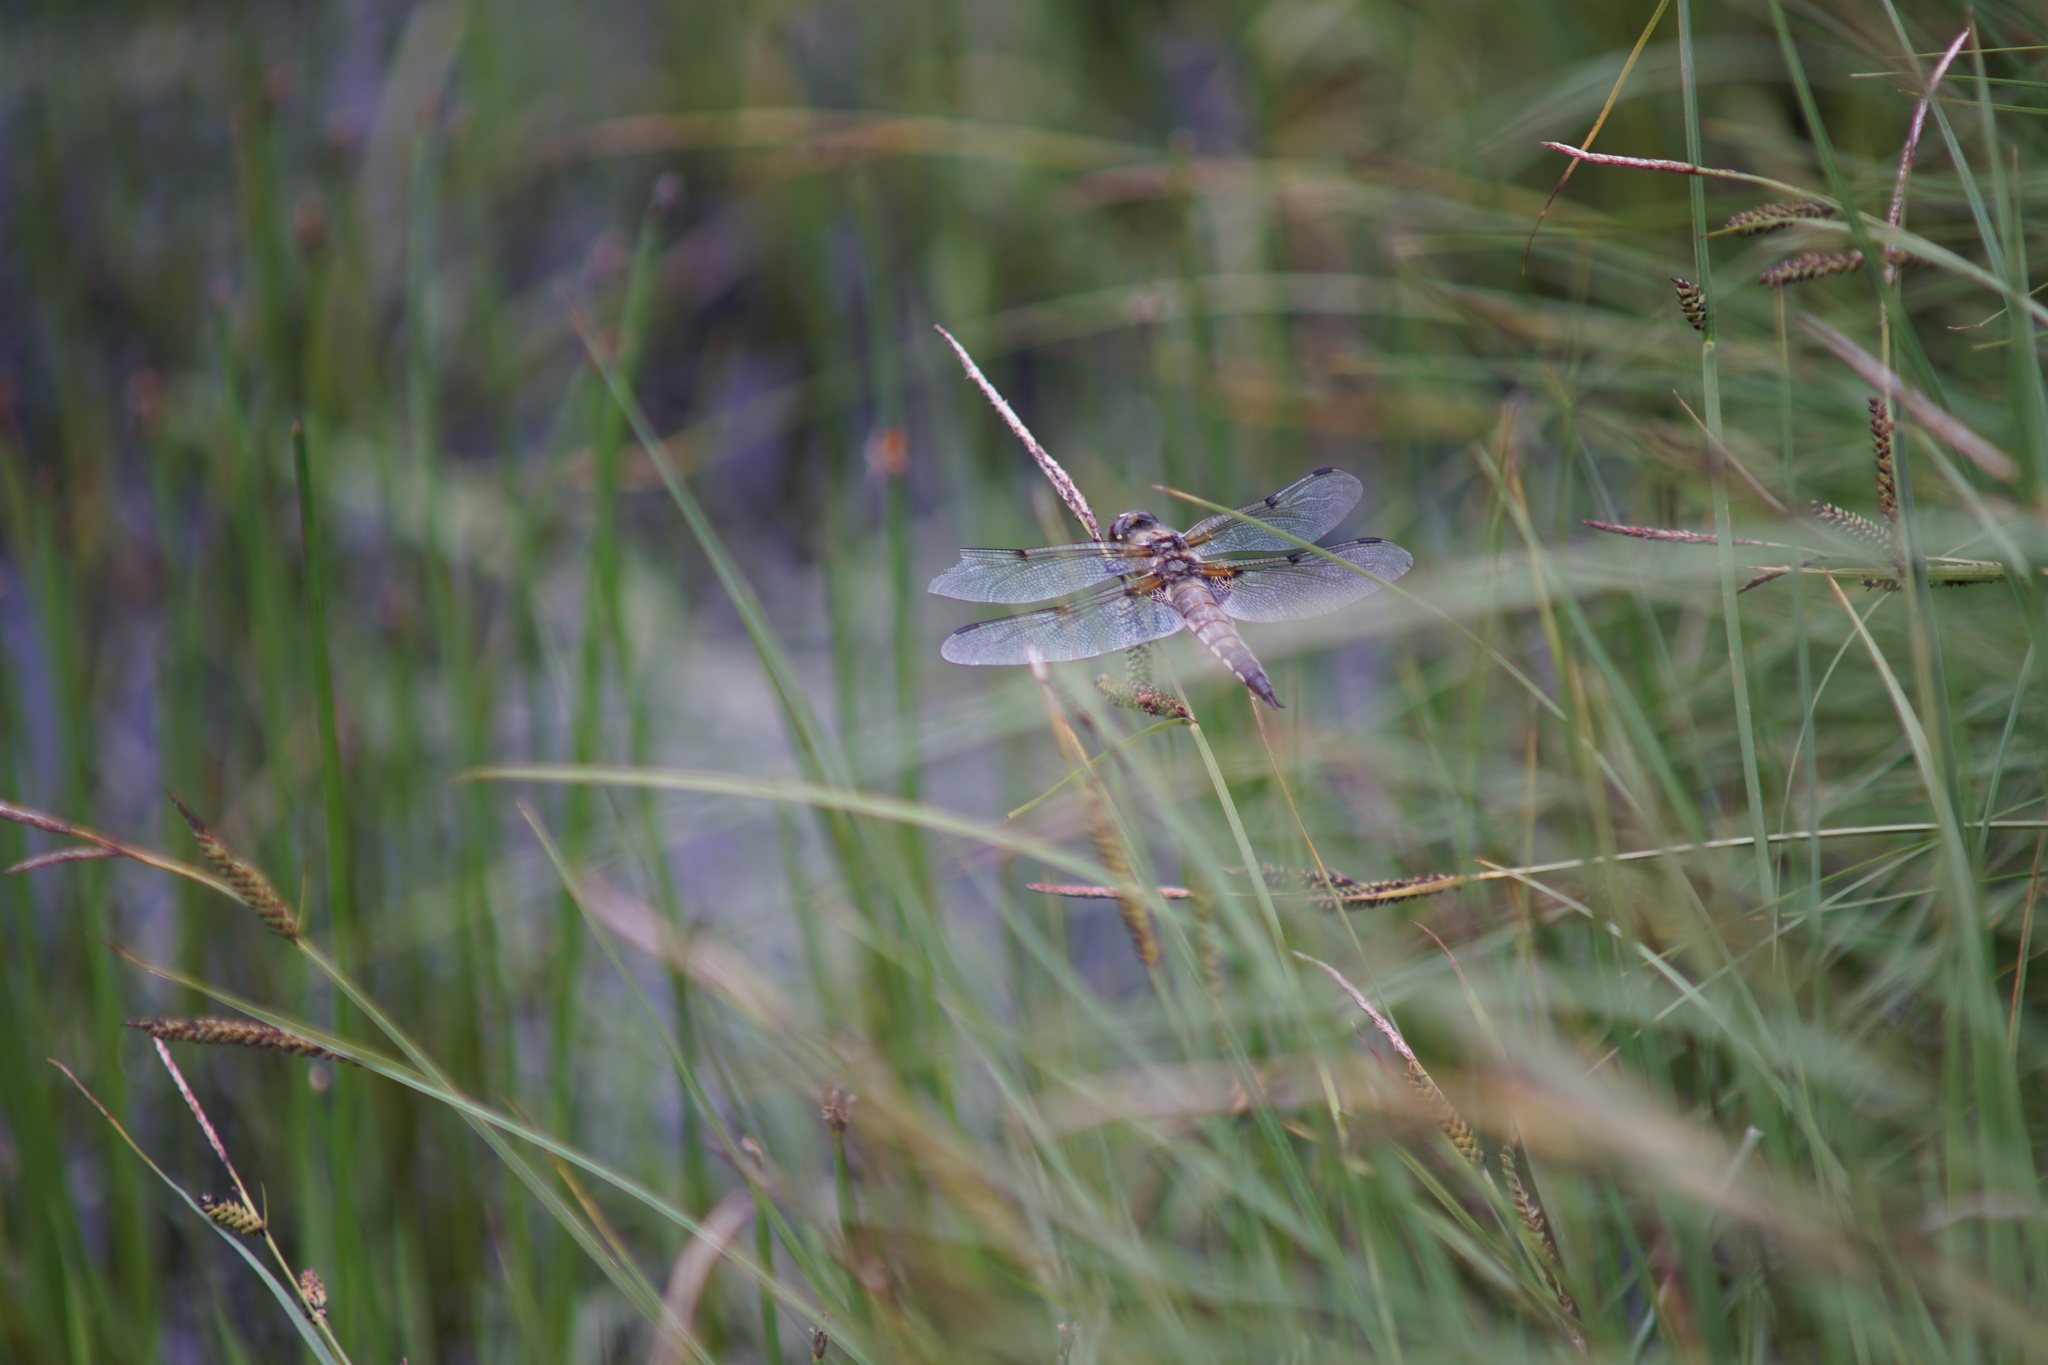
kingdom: Animalia
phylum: Arthropoda
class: Insecta
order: Odonata
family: Libellulidae
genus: Libellula
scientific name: Libellula quadrimaculata
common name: Four-spotted chaser
